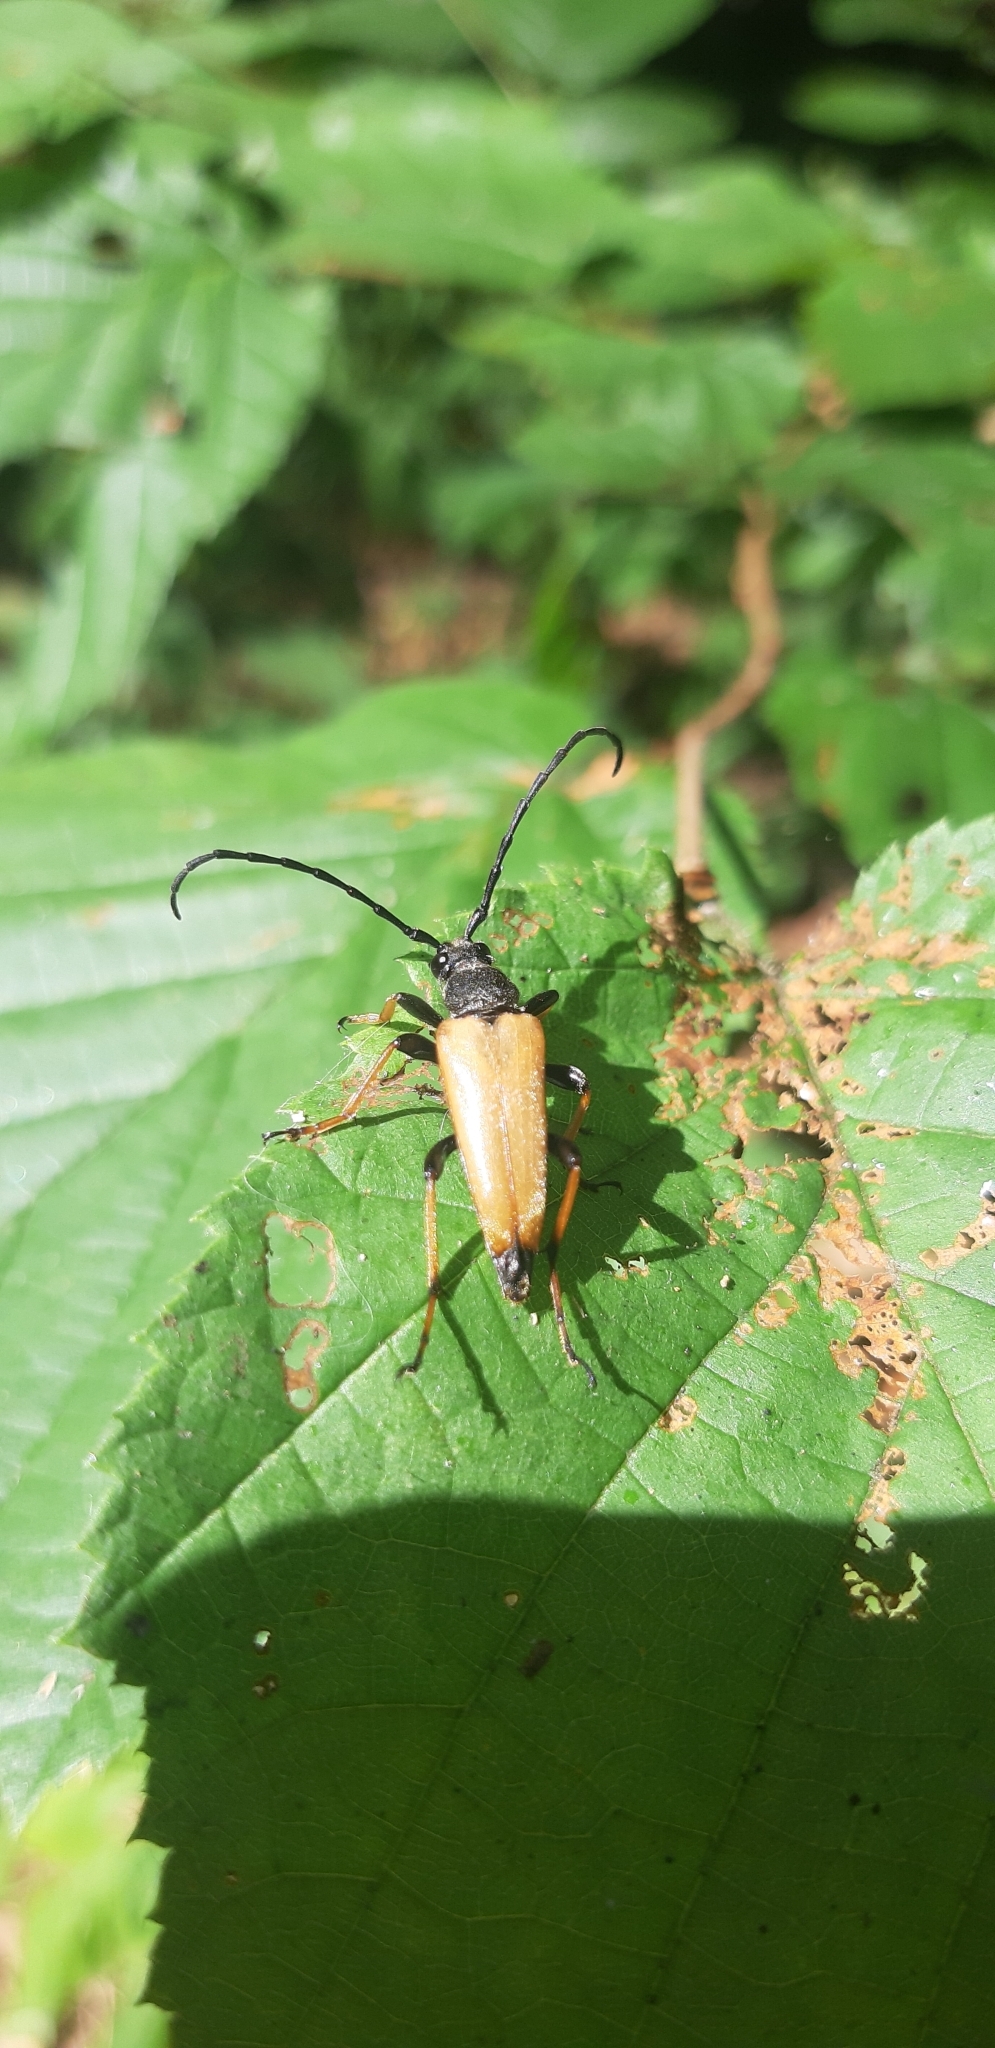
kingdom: Animalia
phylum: Arthropoda
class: Insecta
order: Coleoptera
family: Cerambycidae
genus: Stictoleptura
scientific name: Stictoleptura rubra
